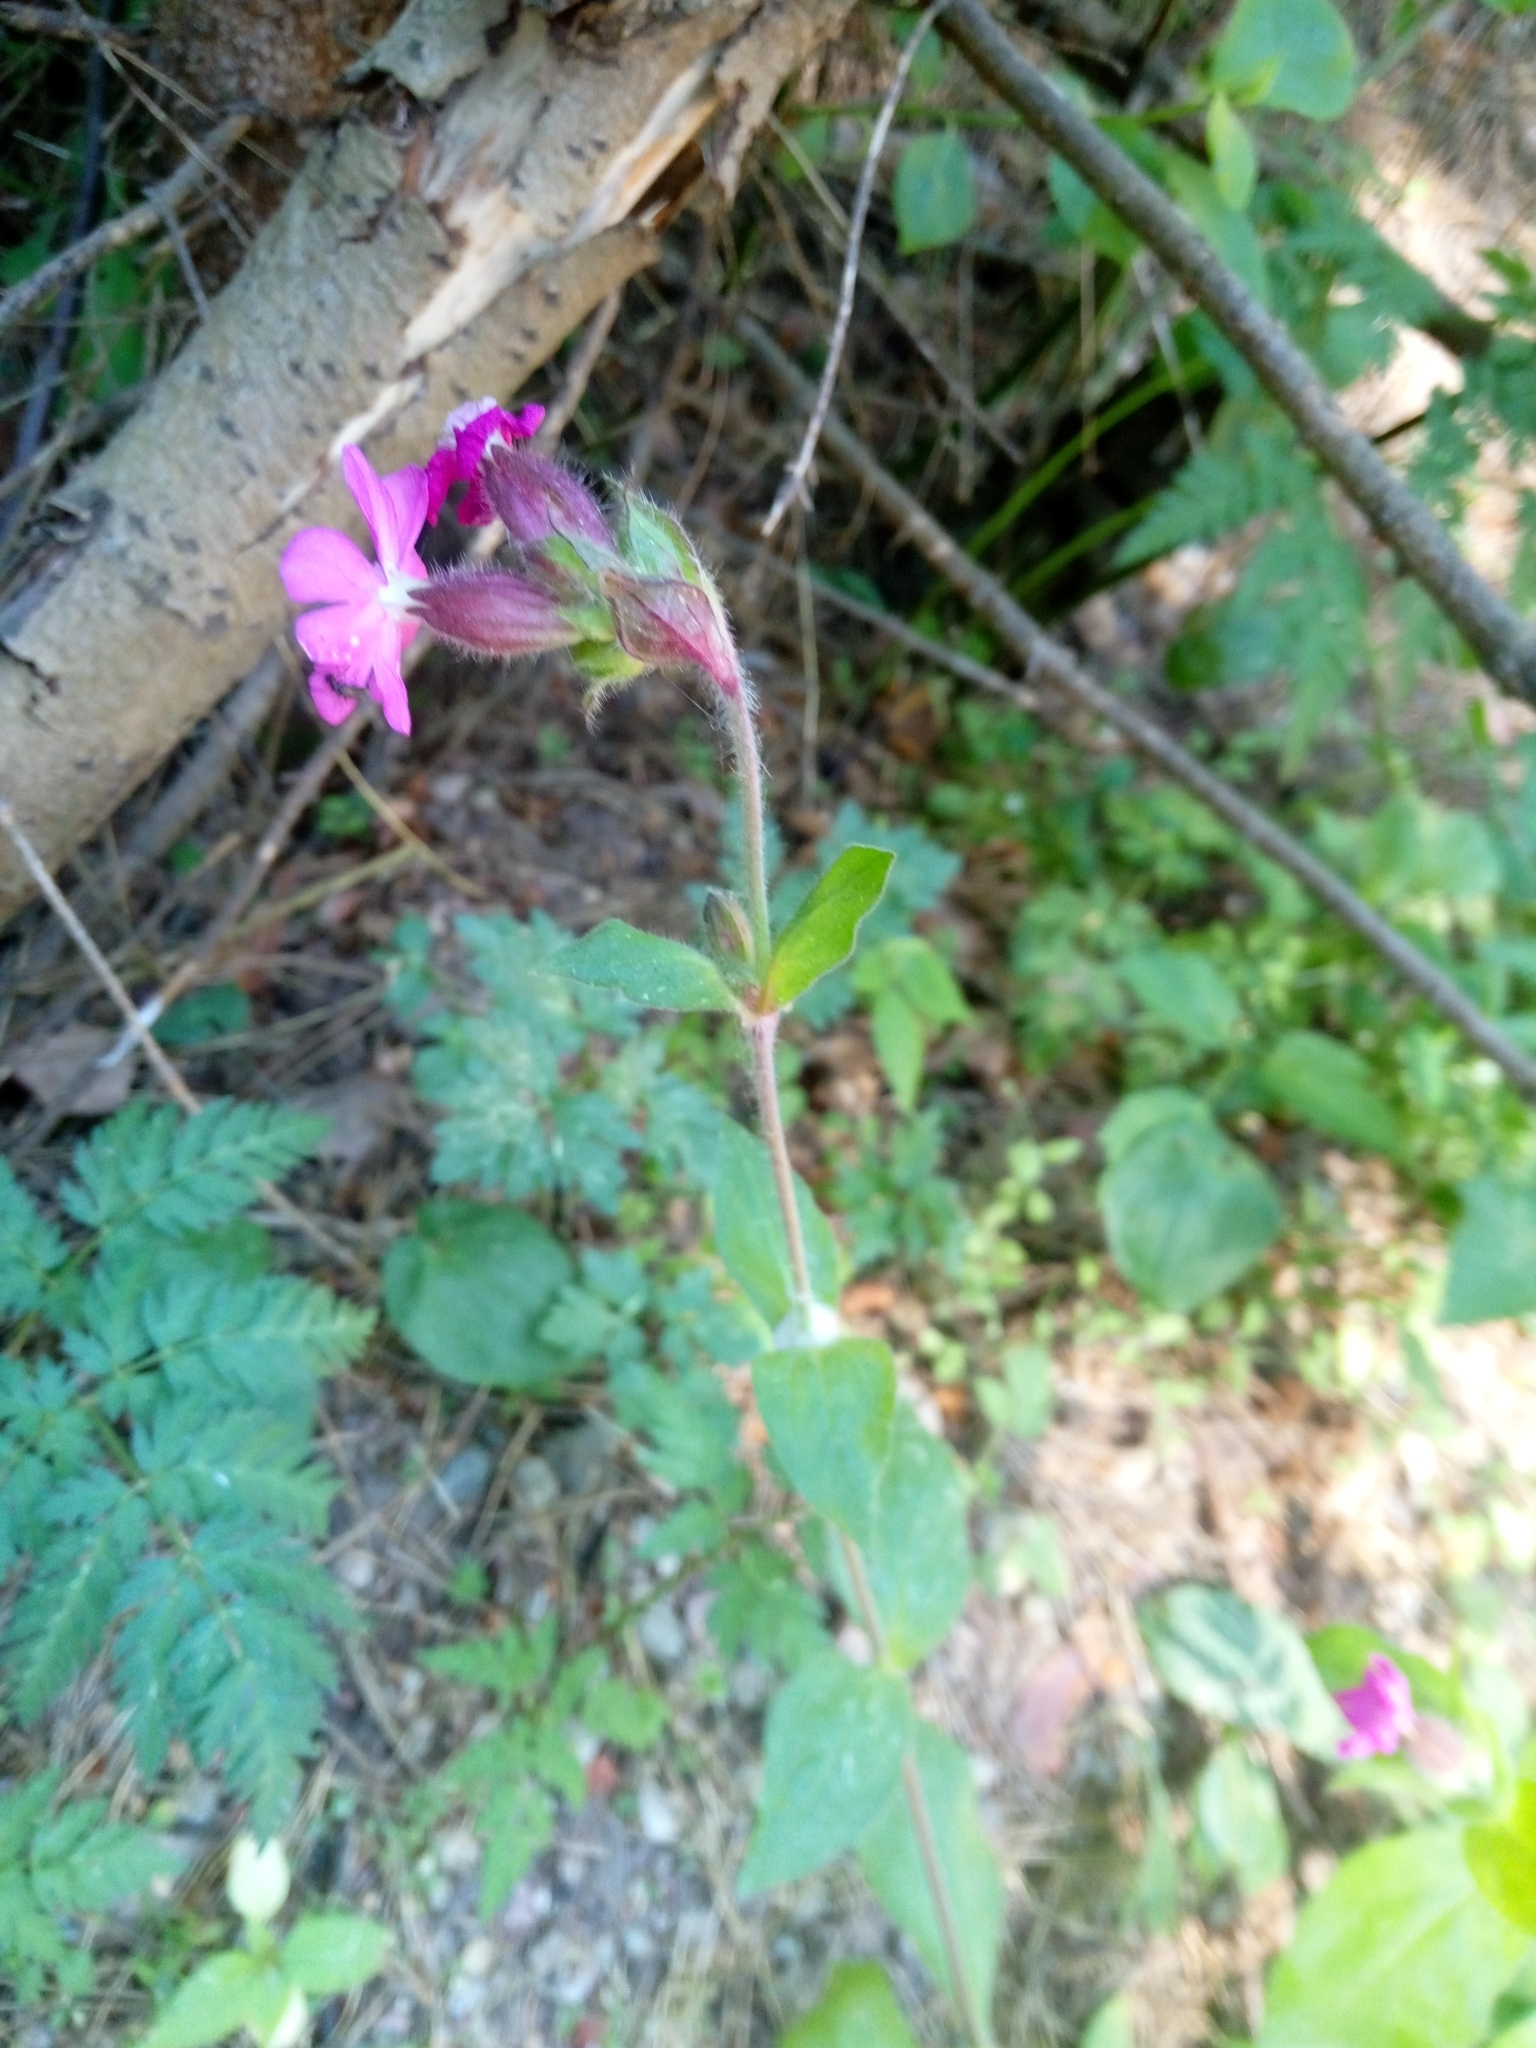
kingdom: Plantae
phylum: Tracheophyta
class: Magnoliopsida
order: Caryophyllales
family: Caryophyllaceae
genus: Silene
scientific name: Silene dioica
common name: Red campion
